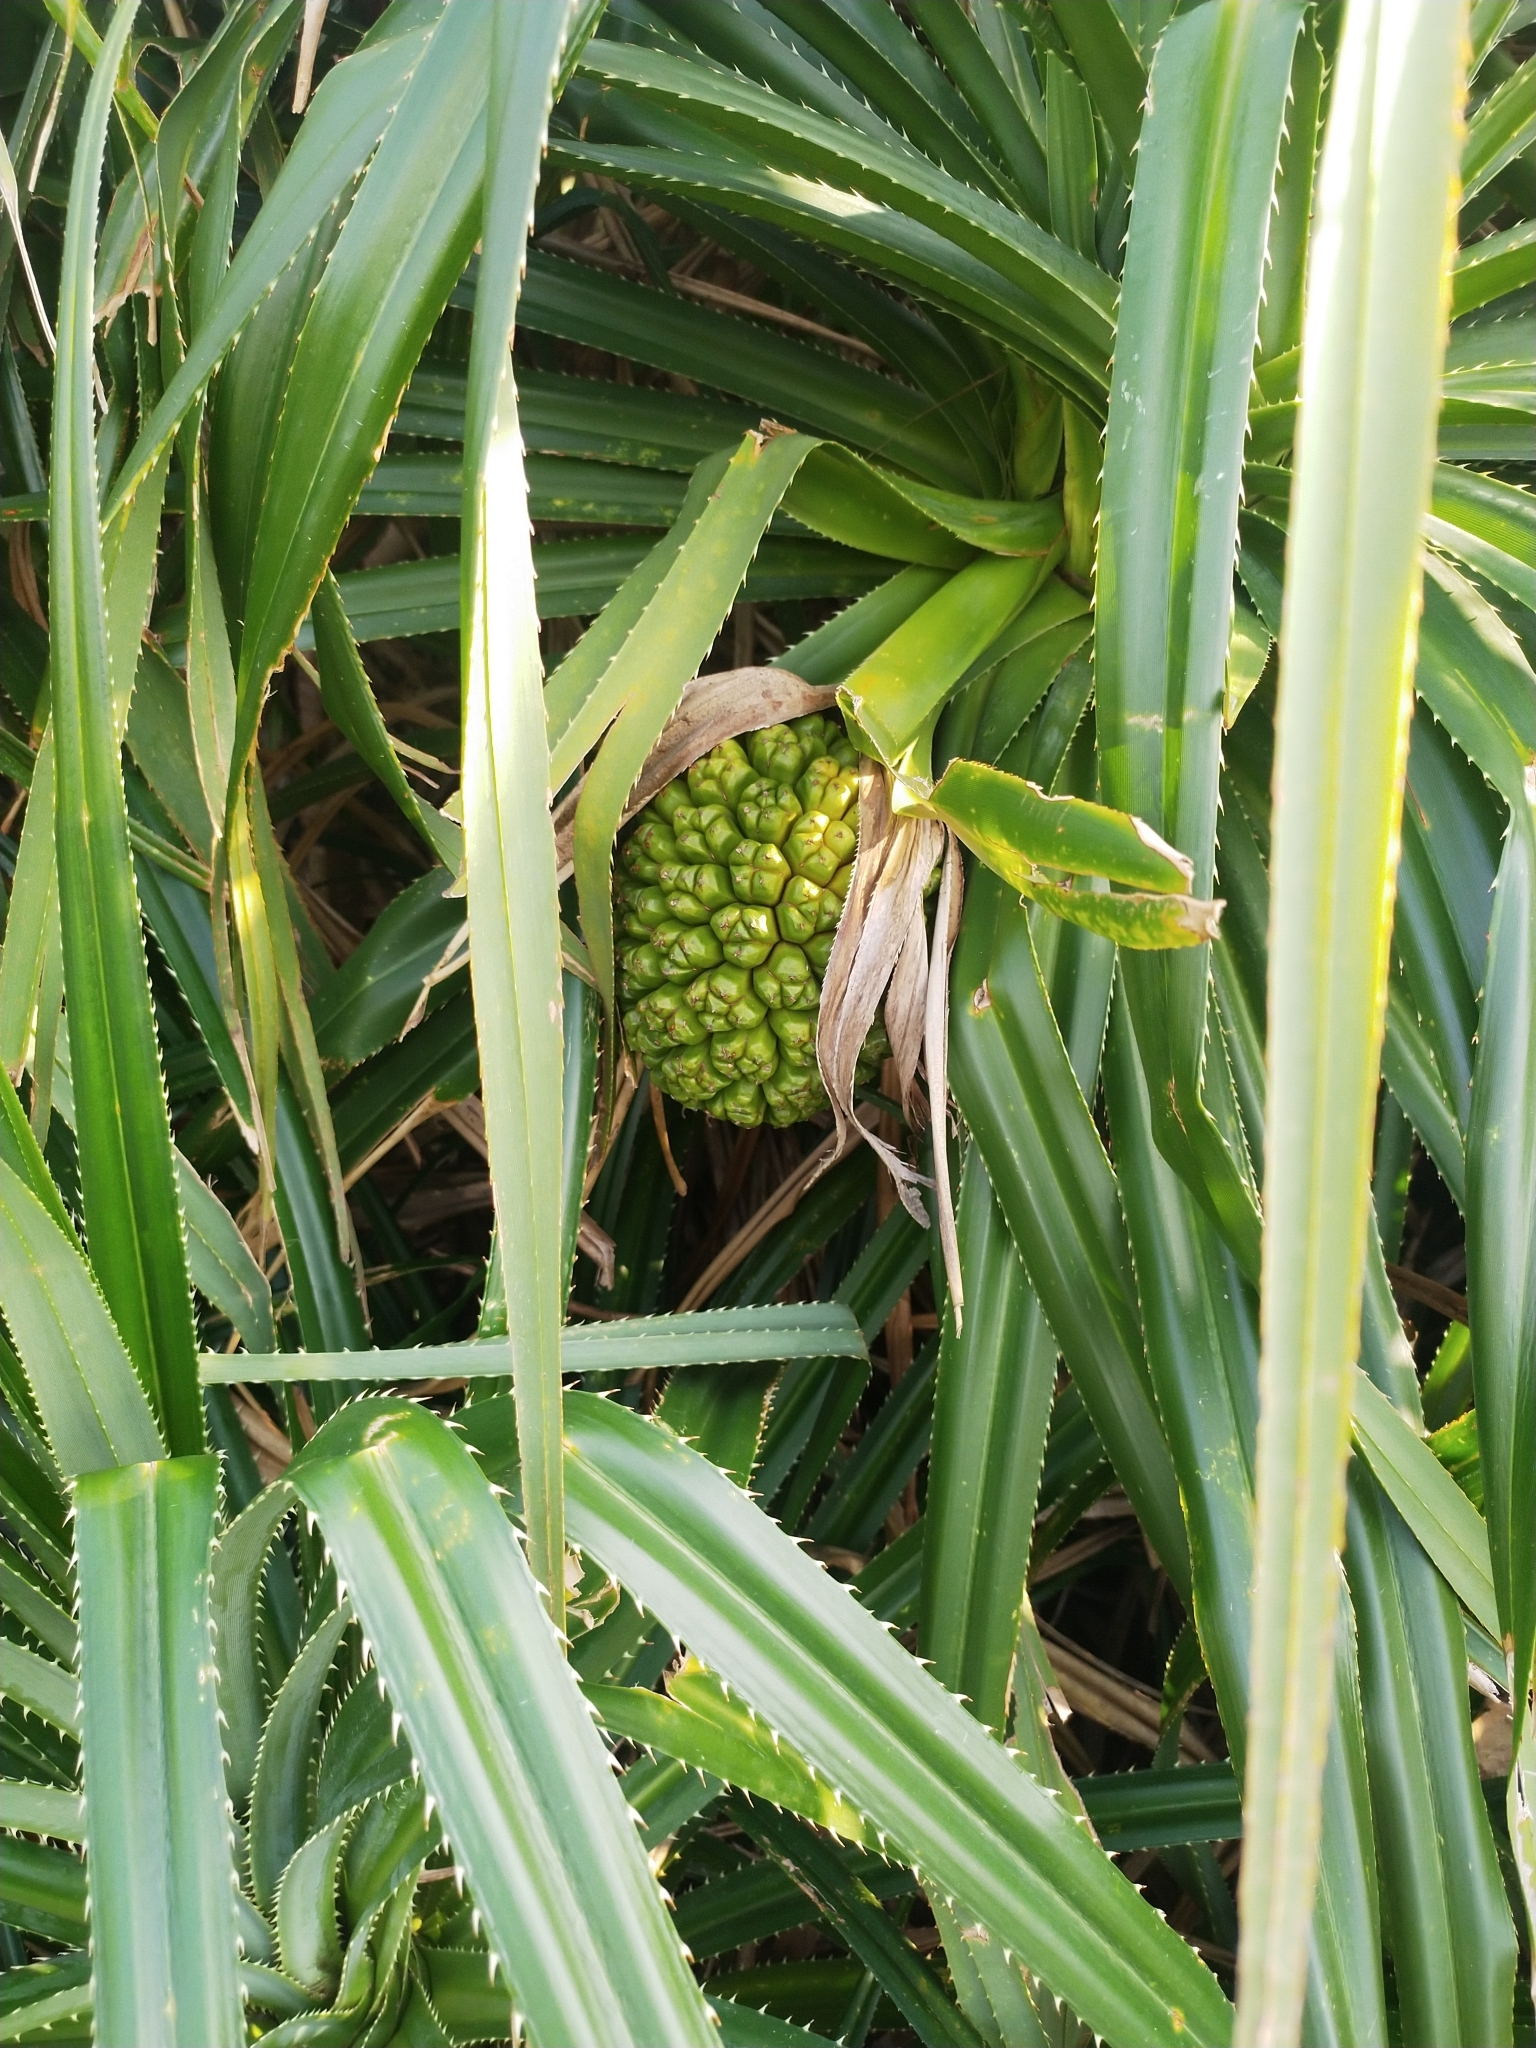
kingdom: Plantae
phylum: Tracheophyta
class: Liliopsida
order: Pandanales
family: Pandanaceae
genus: Pandanus
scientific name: Pandanus odorifer
